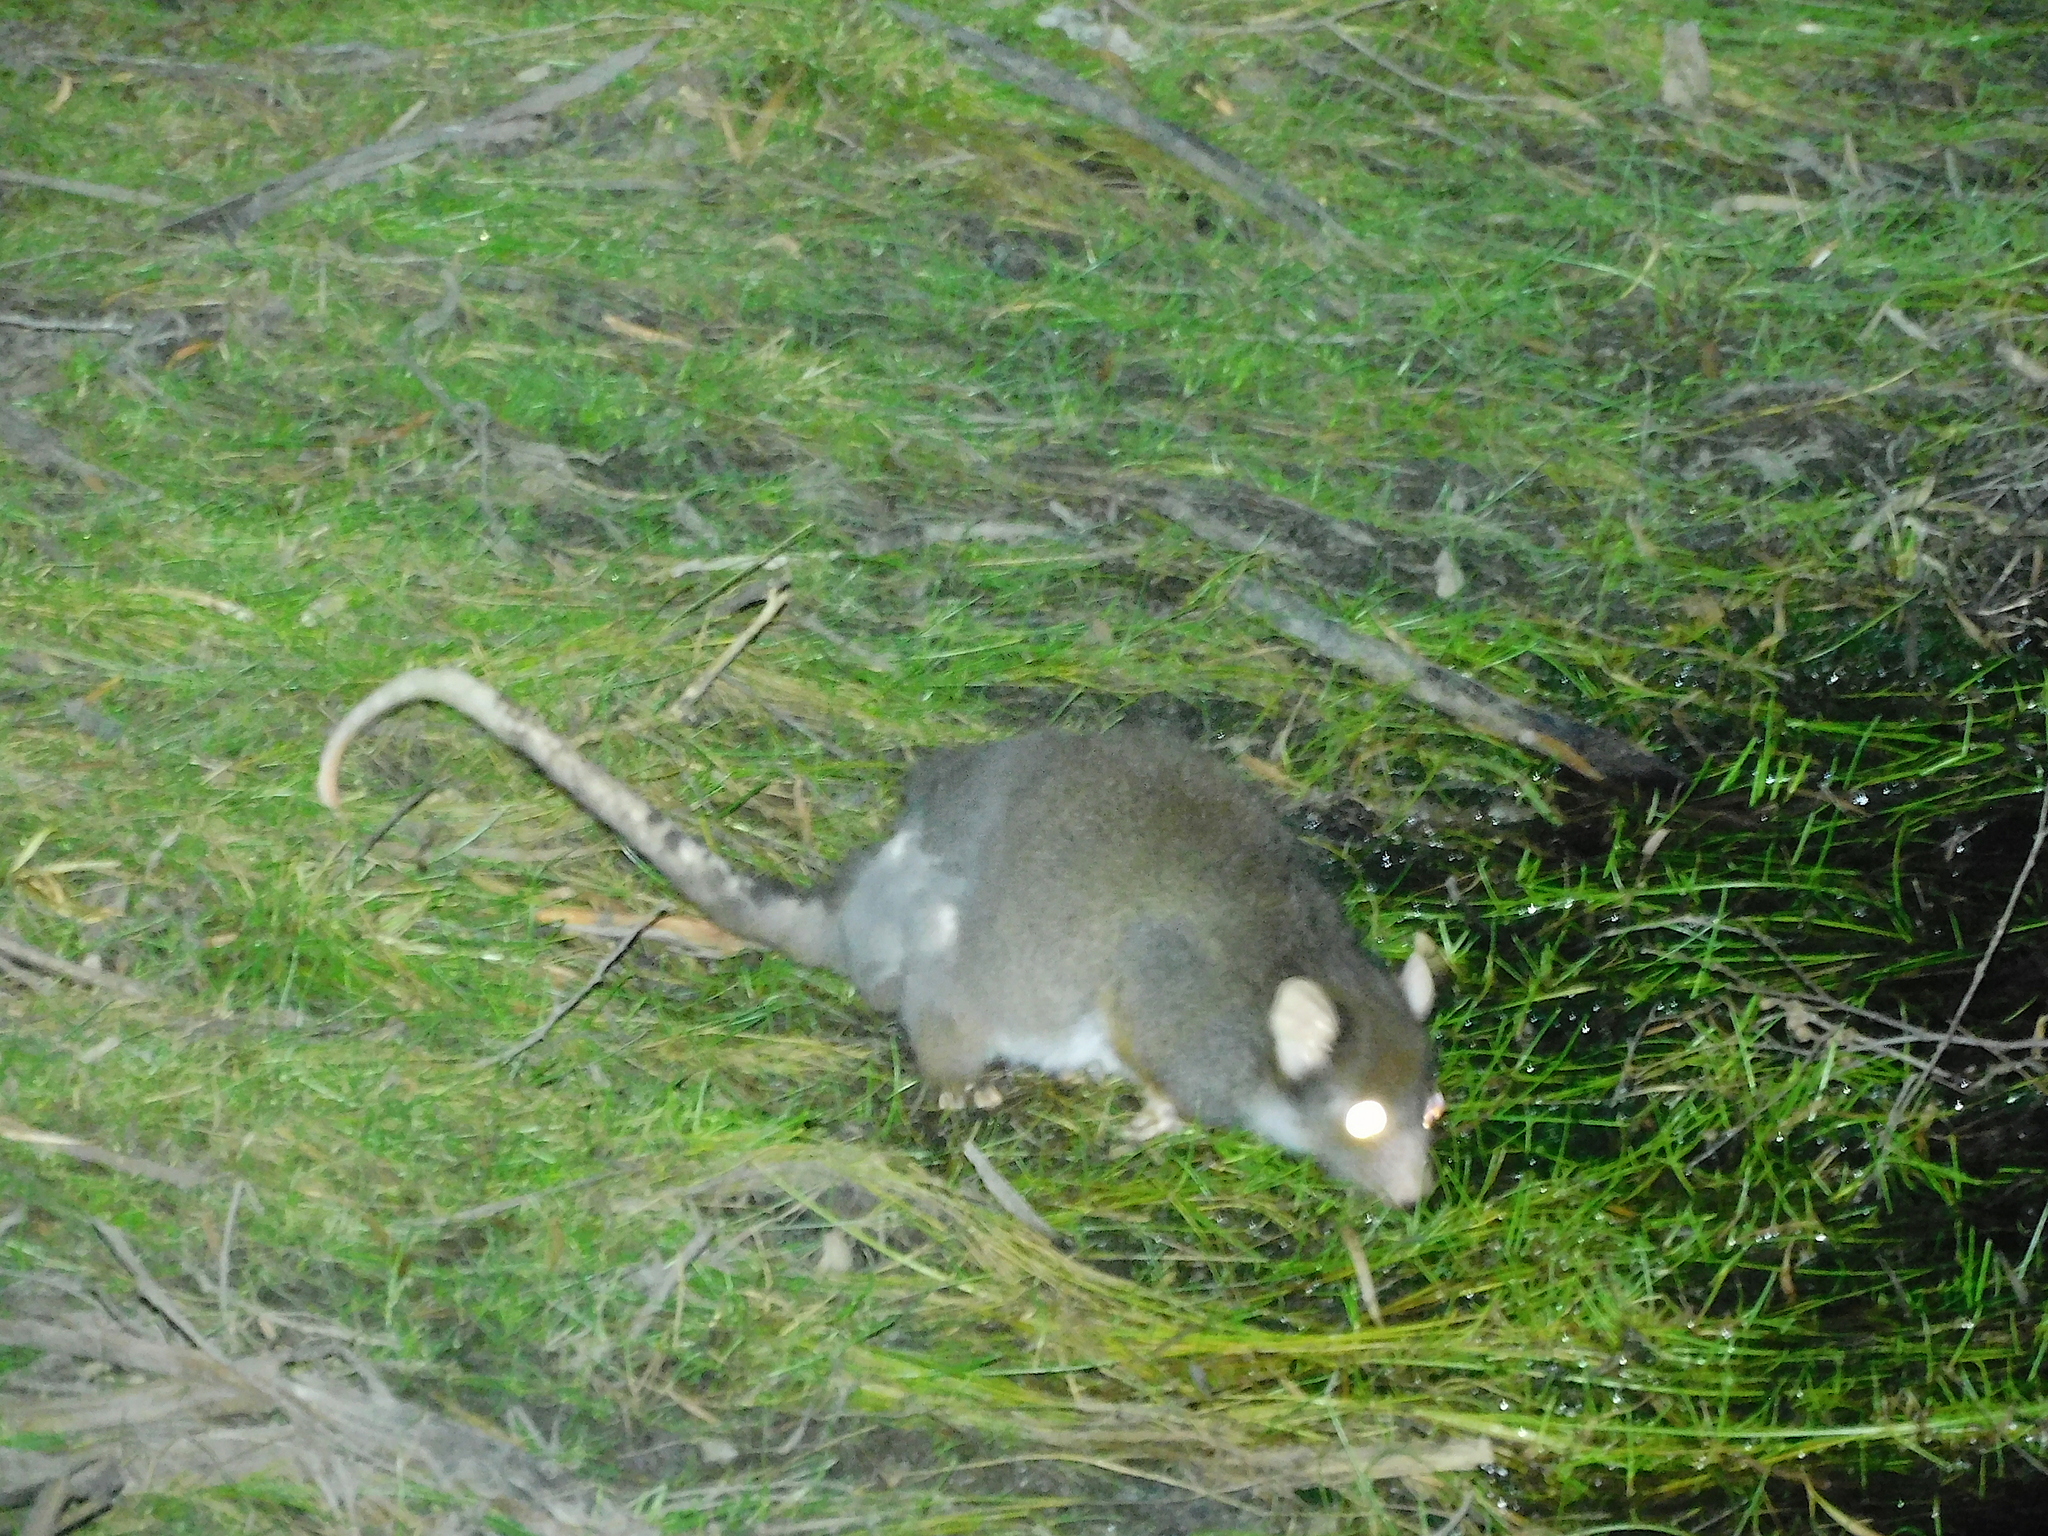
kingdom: Animalia
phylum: Chordata
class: Mammalia
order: Diprotodontia
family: Pseudocheiridae
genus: Pseudocheirus
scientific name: Pseudocheirus peregrinus
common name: Common ringtail possum
